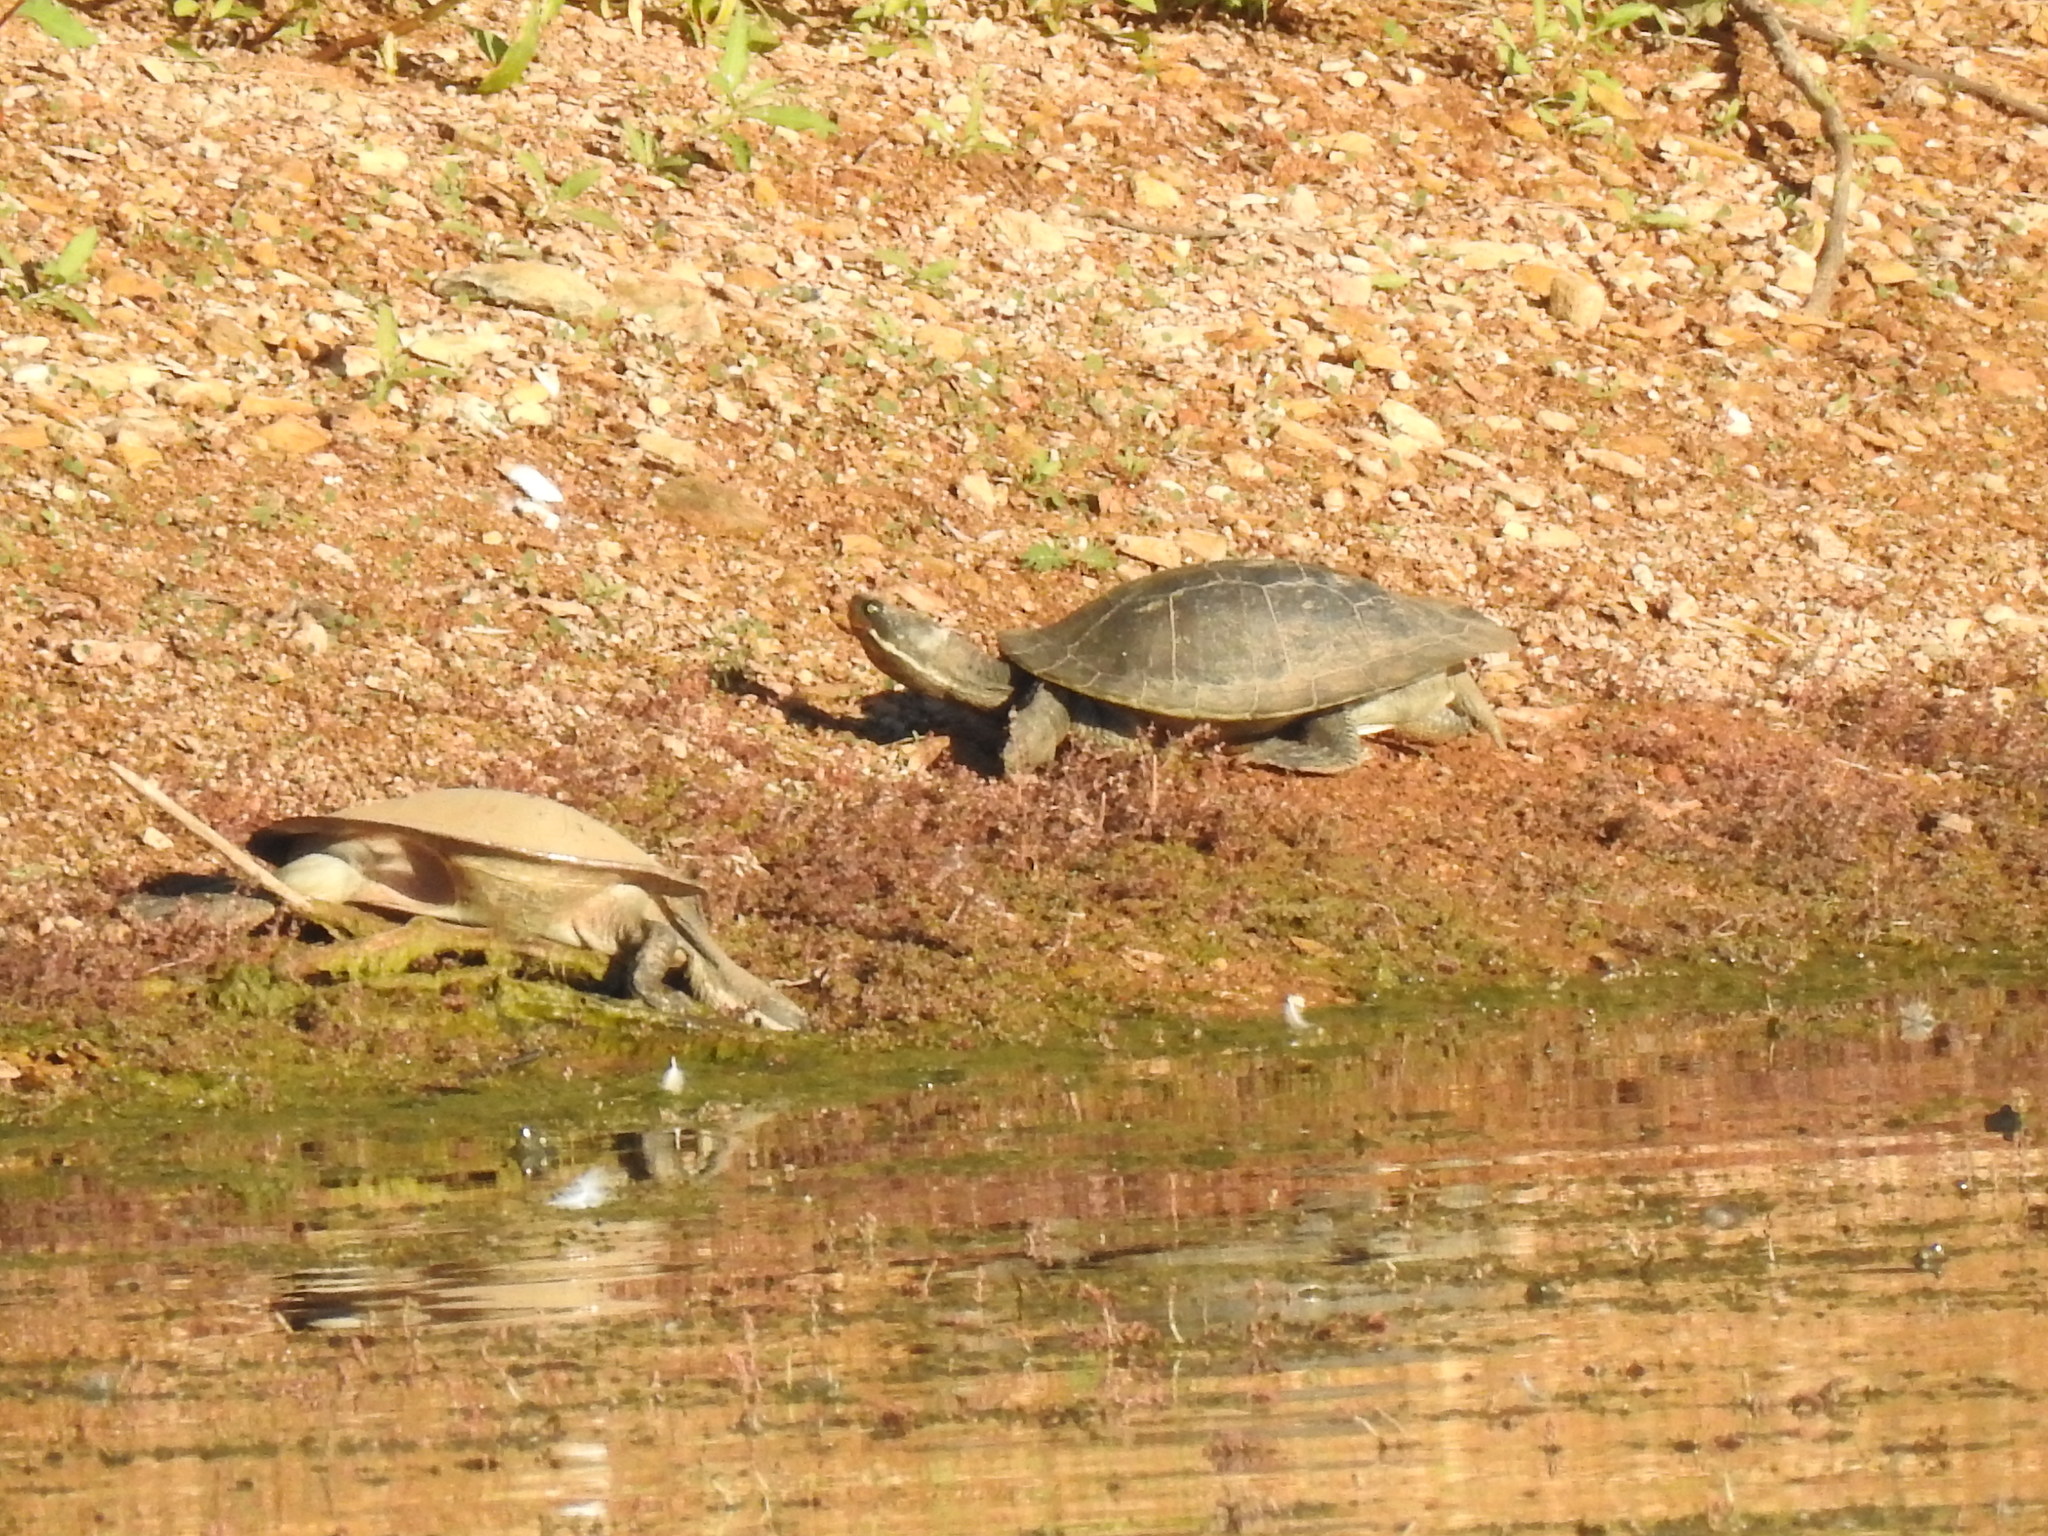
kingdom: Animalia
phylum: Chordata
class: Testudines
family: Chelidae
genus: Emydura
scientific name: Emydura macquarii
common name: Murray river turtle
